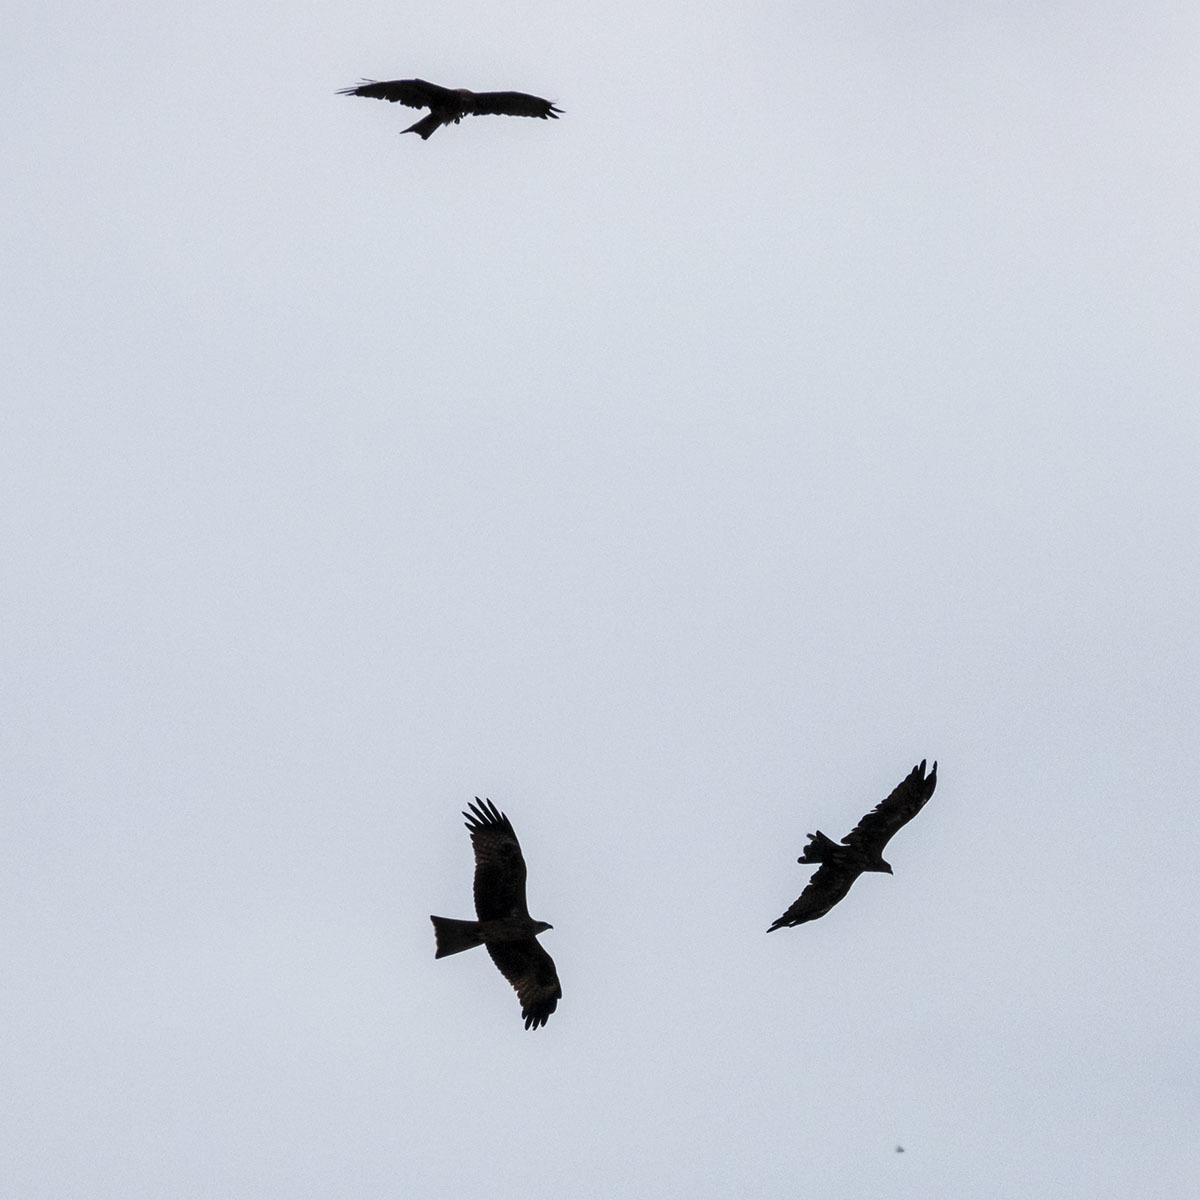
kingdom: Animalia
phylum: Chordata
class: Aves
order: Accipitriformes
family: Accipitridae
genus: Milvus
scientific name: Milvus migrans
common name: Black kite
